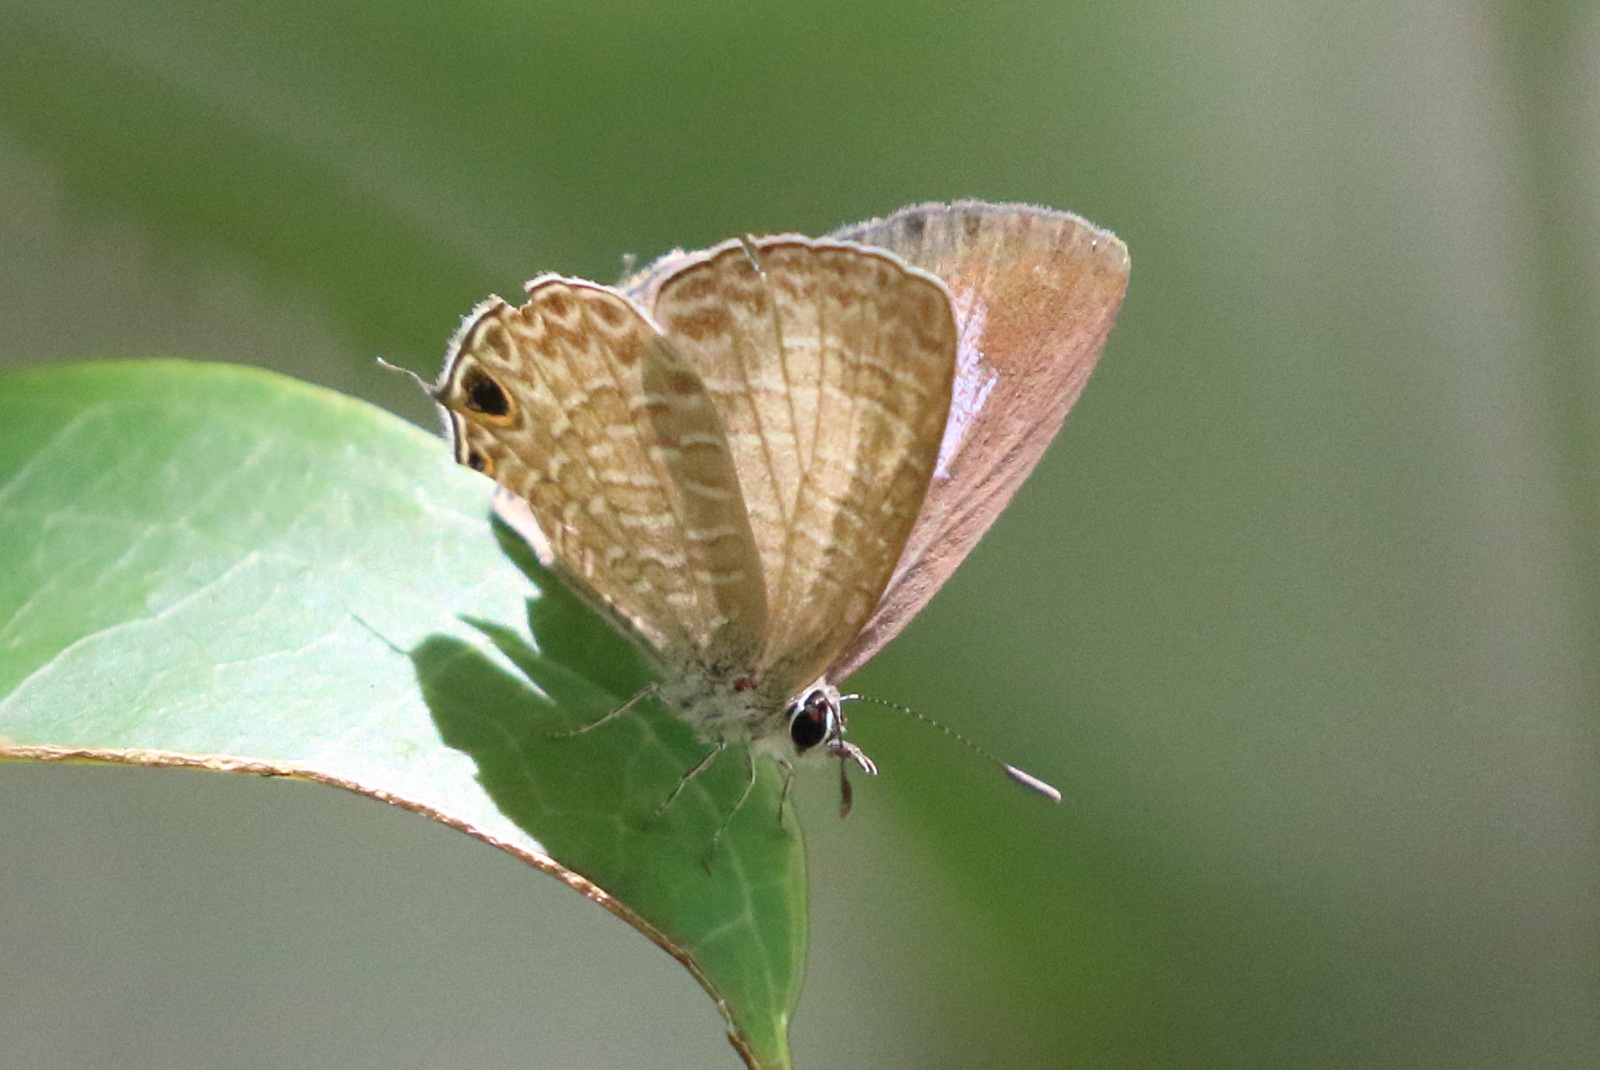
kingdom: Animalia
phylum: Arthropoda
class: Insecta
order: Lepidoptera
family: Lycaenidae
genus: Nacaduba
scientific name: Nacaduba berenice
